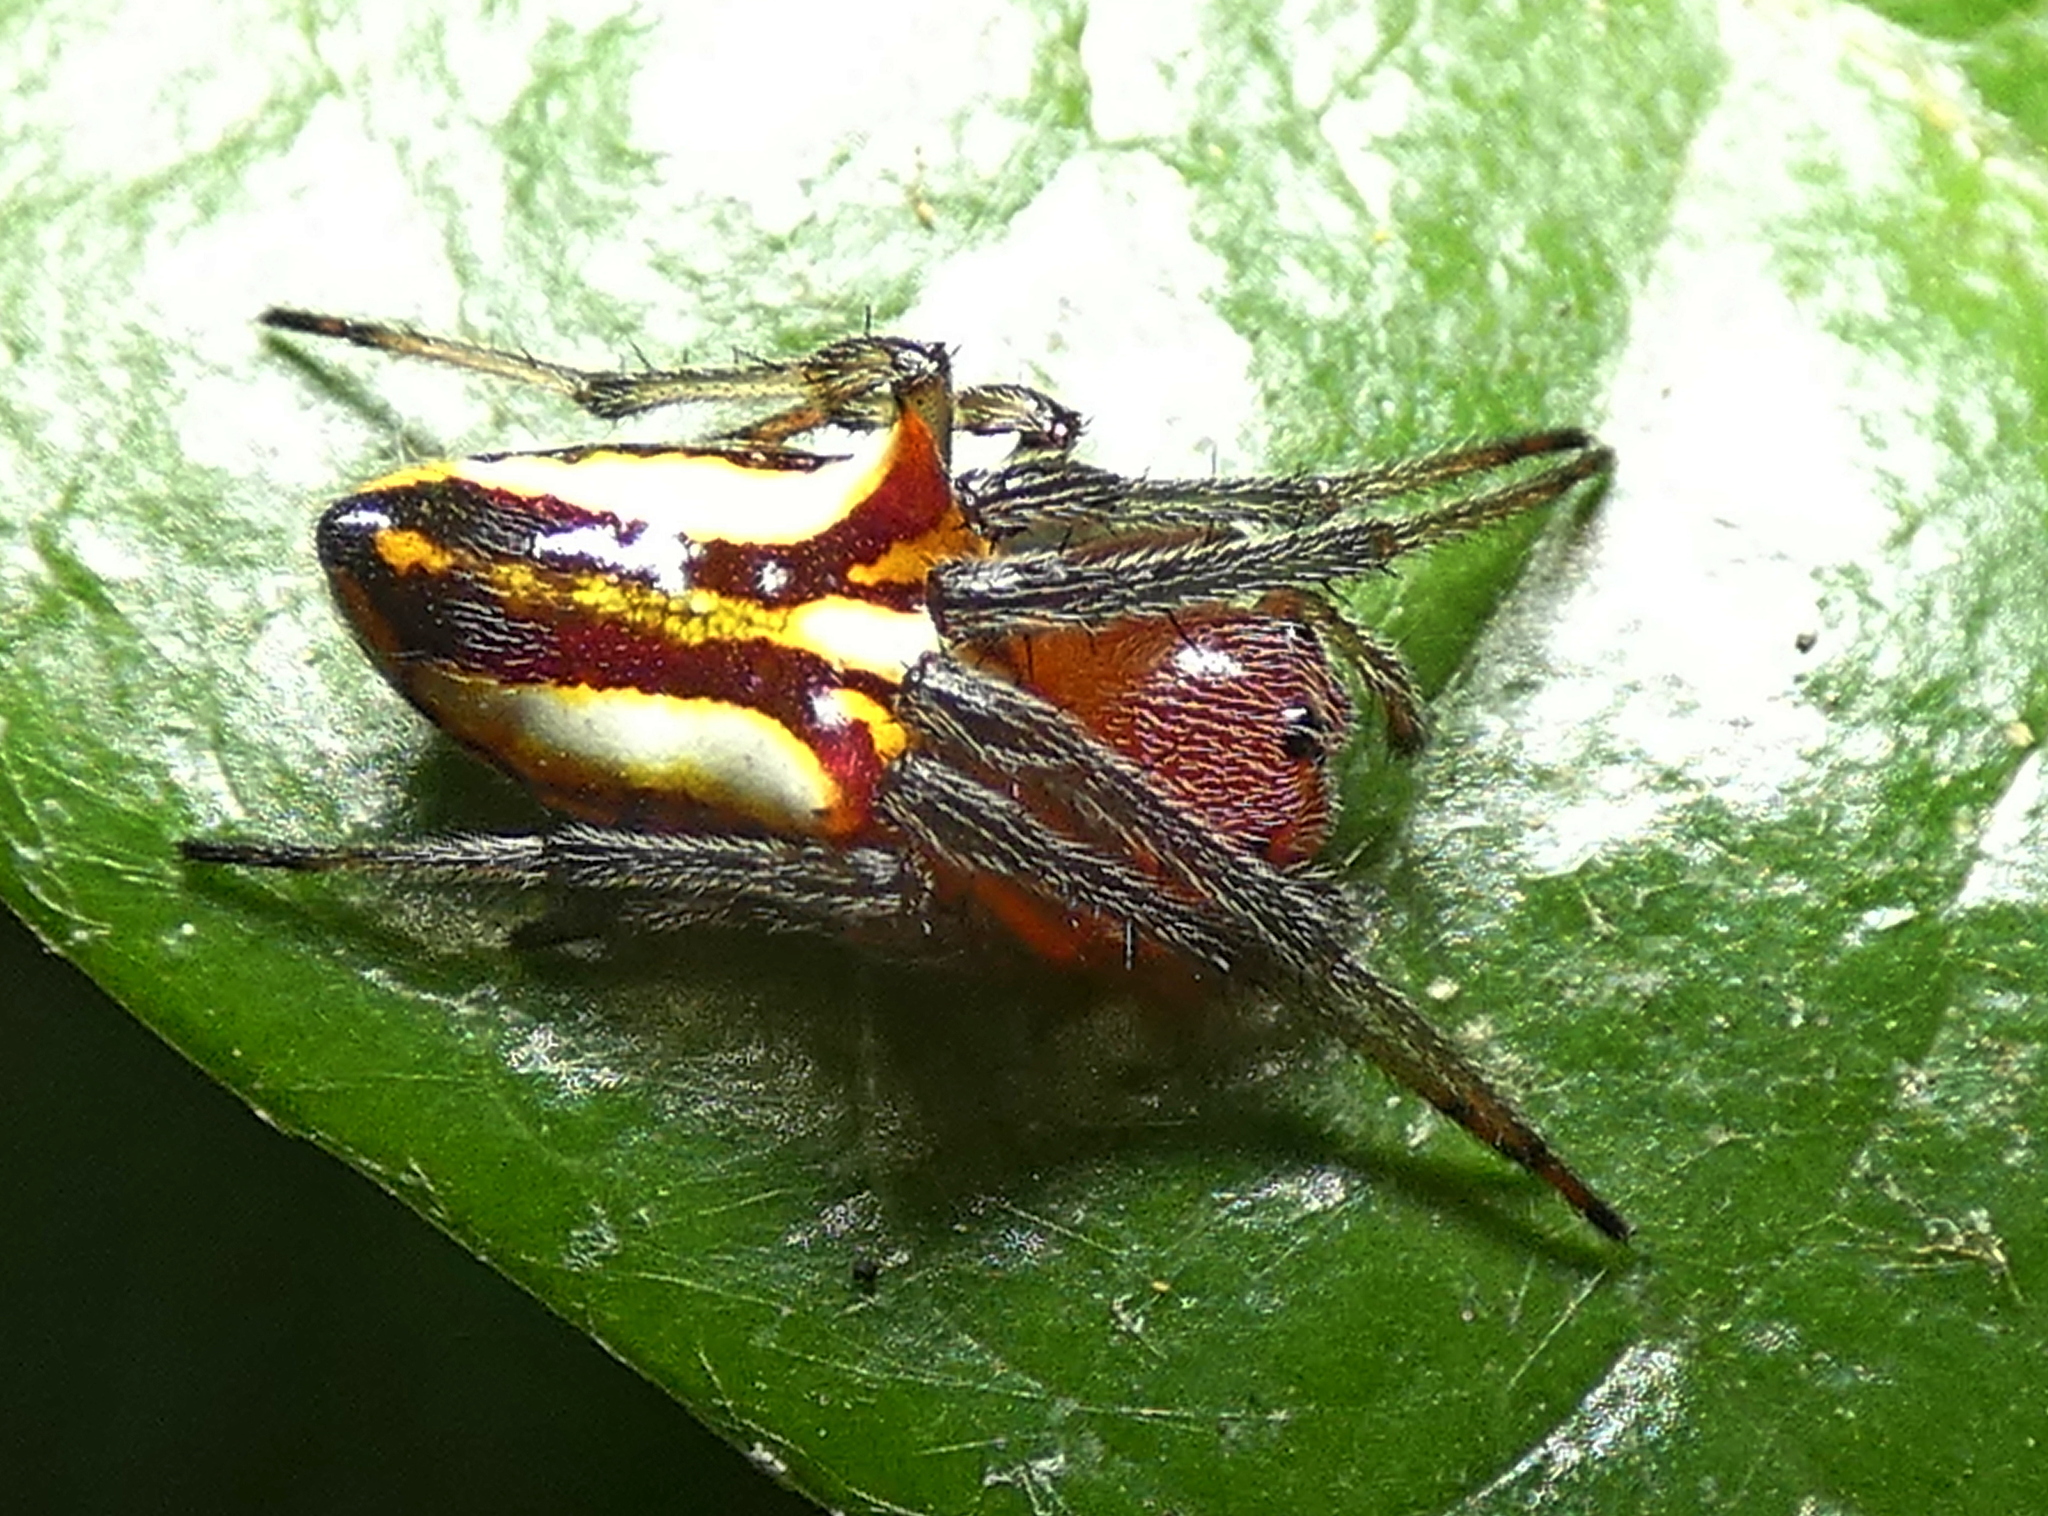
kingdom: Animalia
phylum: Arthropoda
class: Arachnida
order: Araneae
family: Araneidae
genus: Alpaida
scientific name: Alpaida bicornuta
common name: Orb weavers
